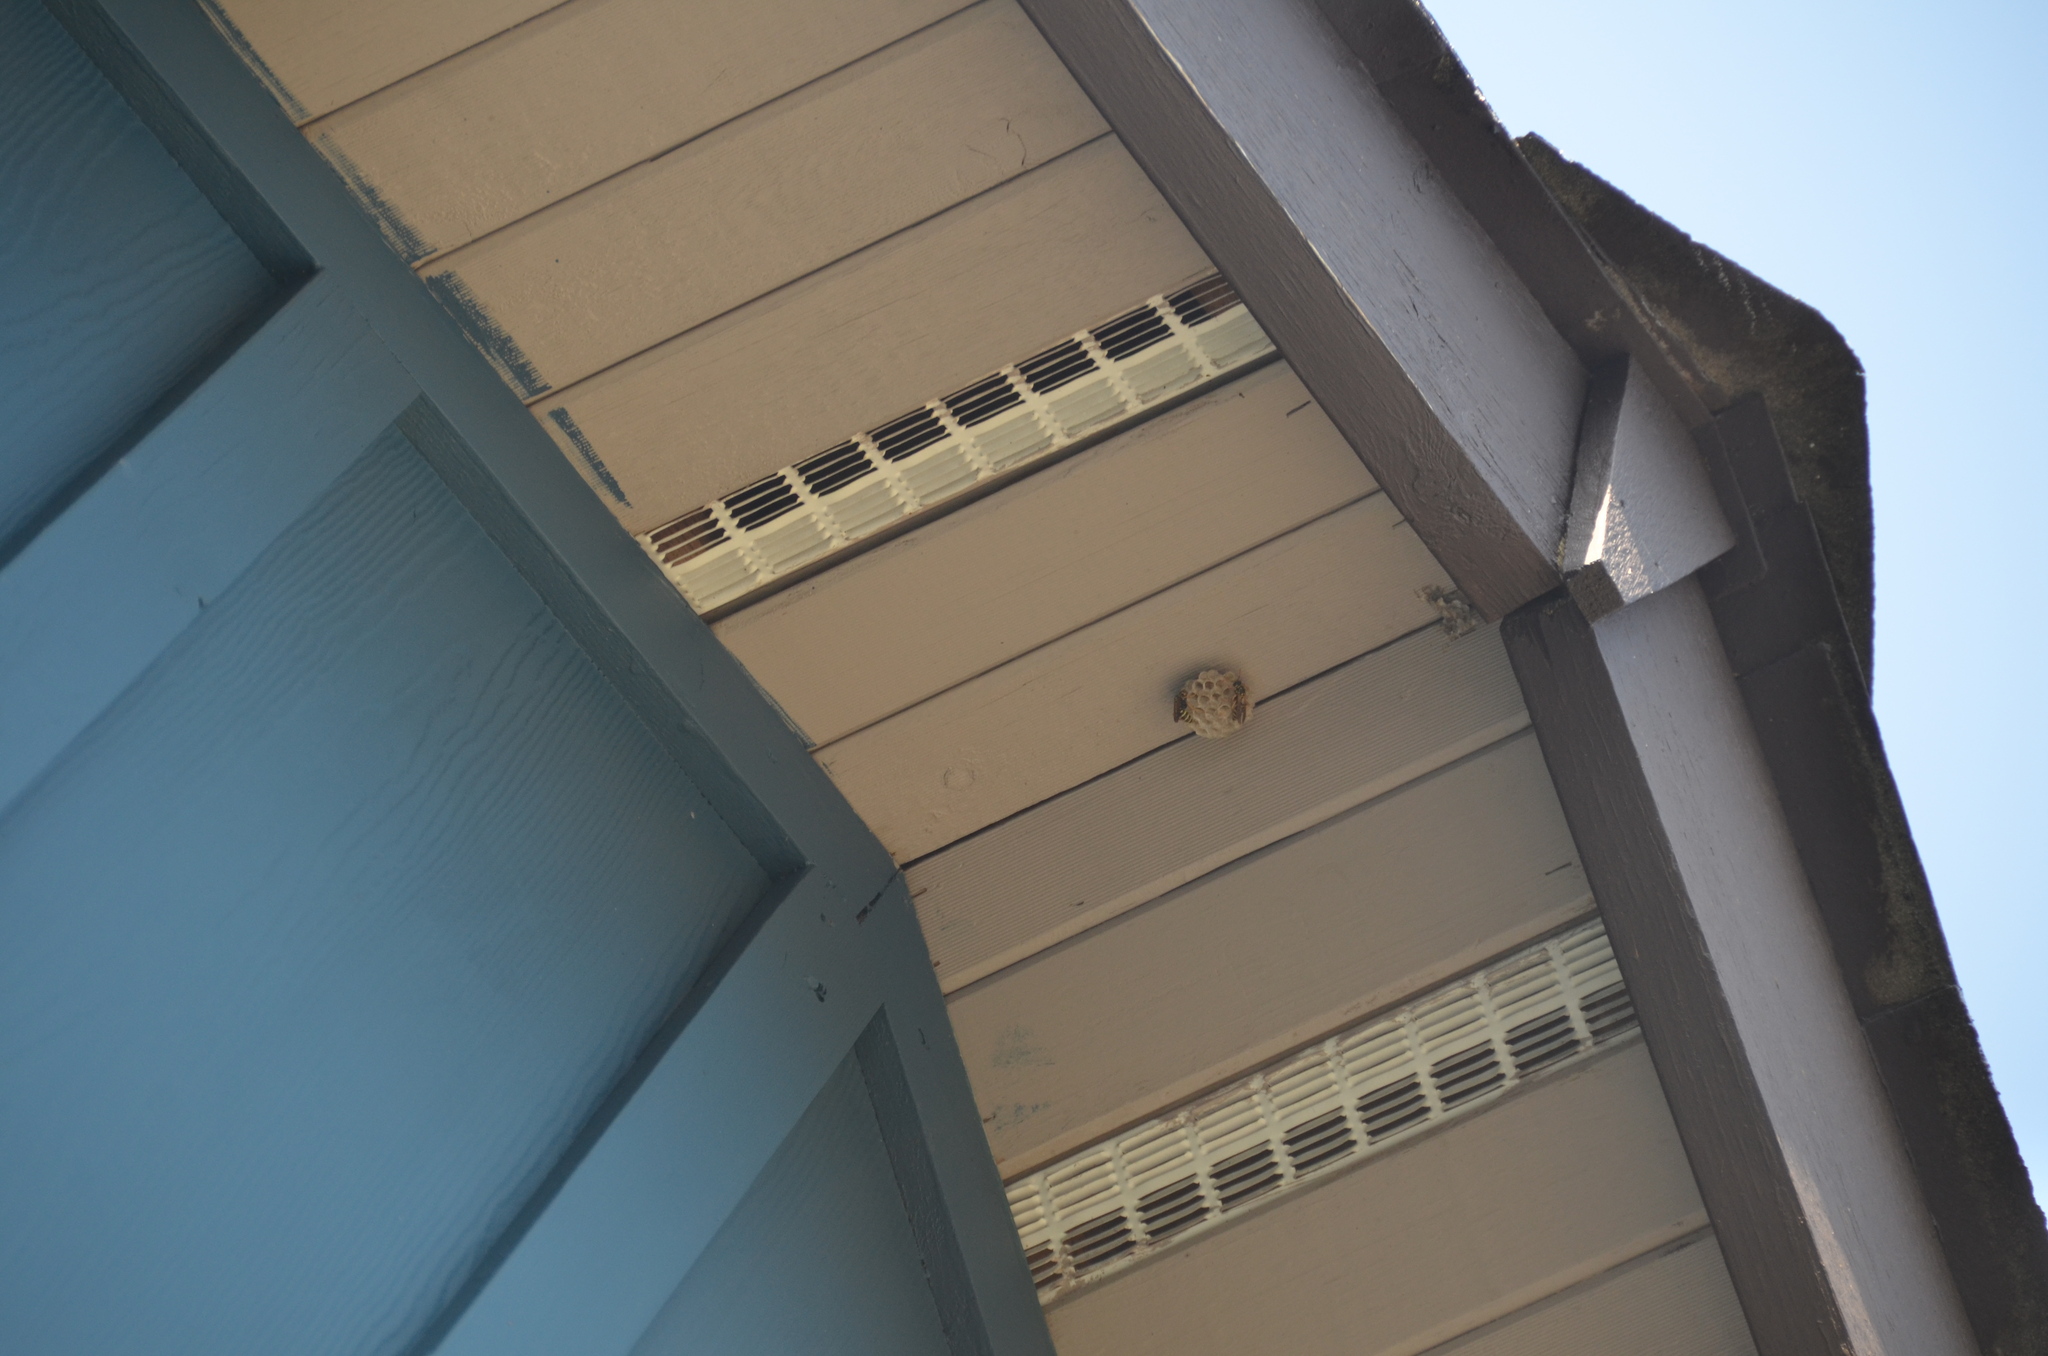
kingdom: Animalia
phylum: Arthropoda
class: Insecta
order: Hymenoptera
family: Eumenidae
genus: Polistes
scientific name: Polistes dominula
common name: Paper wasp
